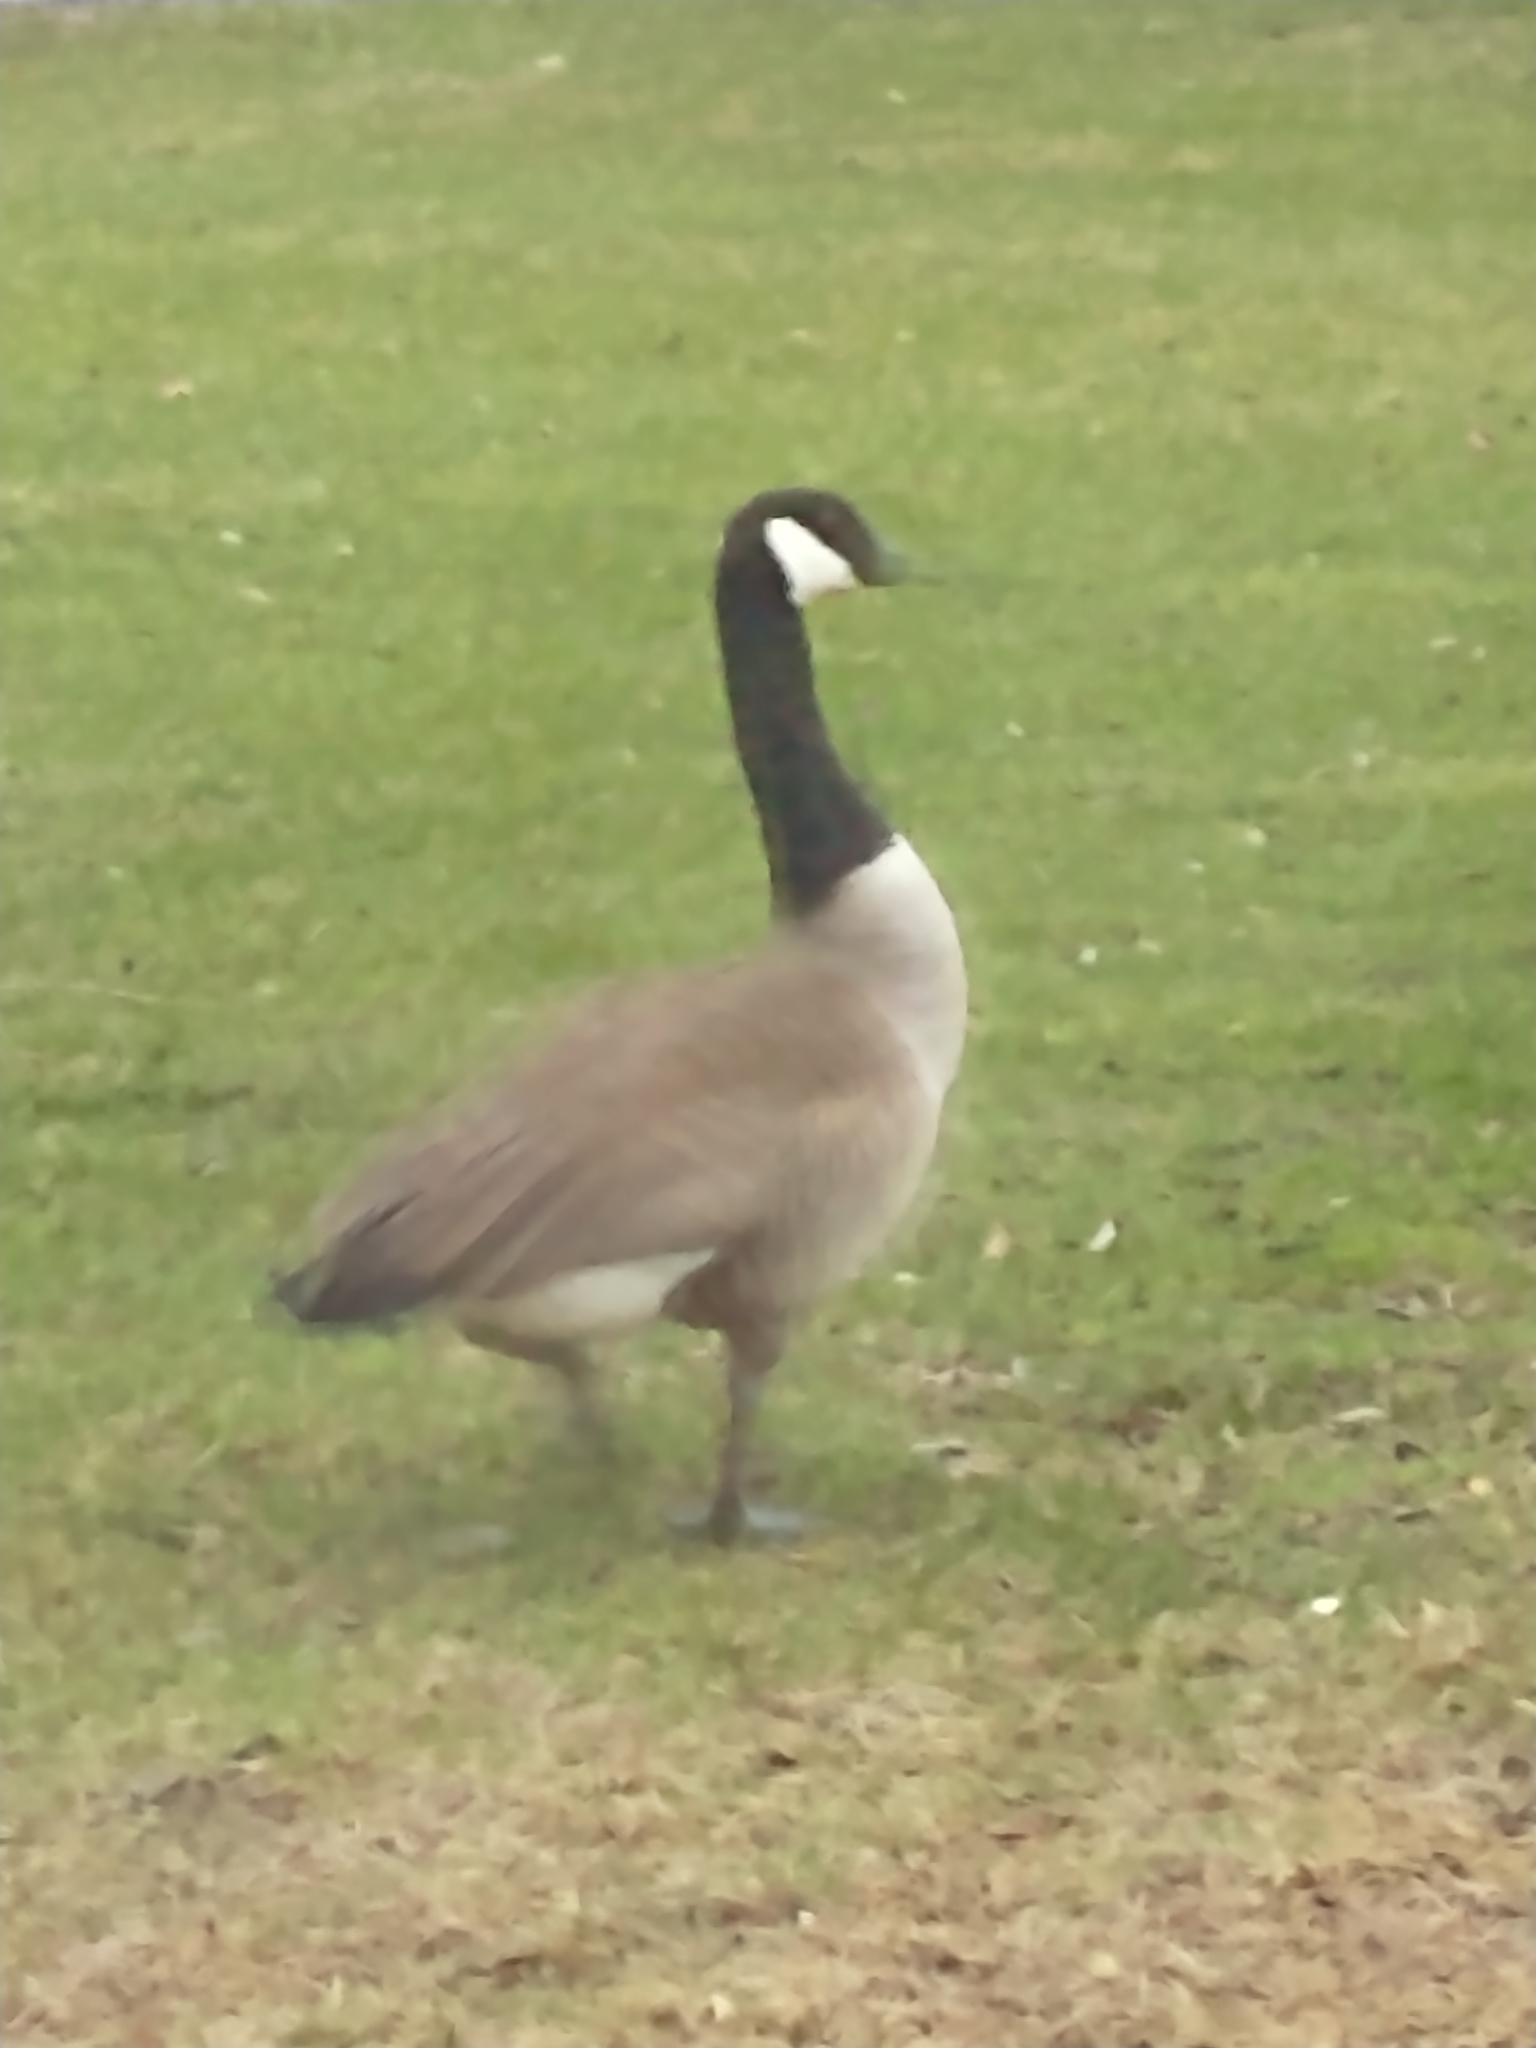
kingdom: Animalia
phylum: Chordata
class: Aves
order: Anseriformes
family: Anatidae
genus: Branta
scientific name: Branta canadensis
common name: Canada goose
